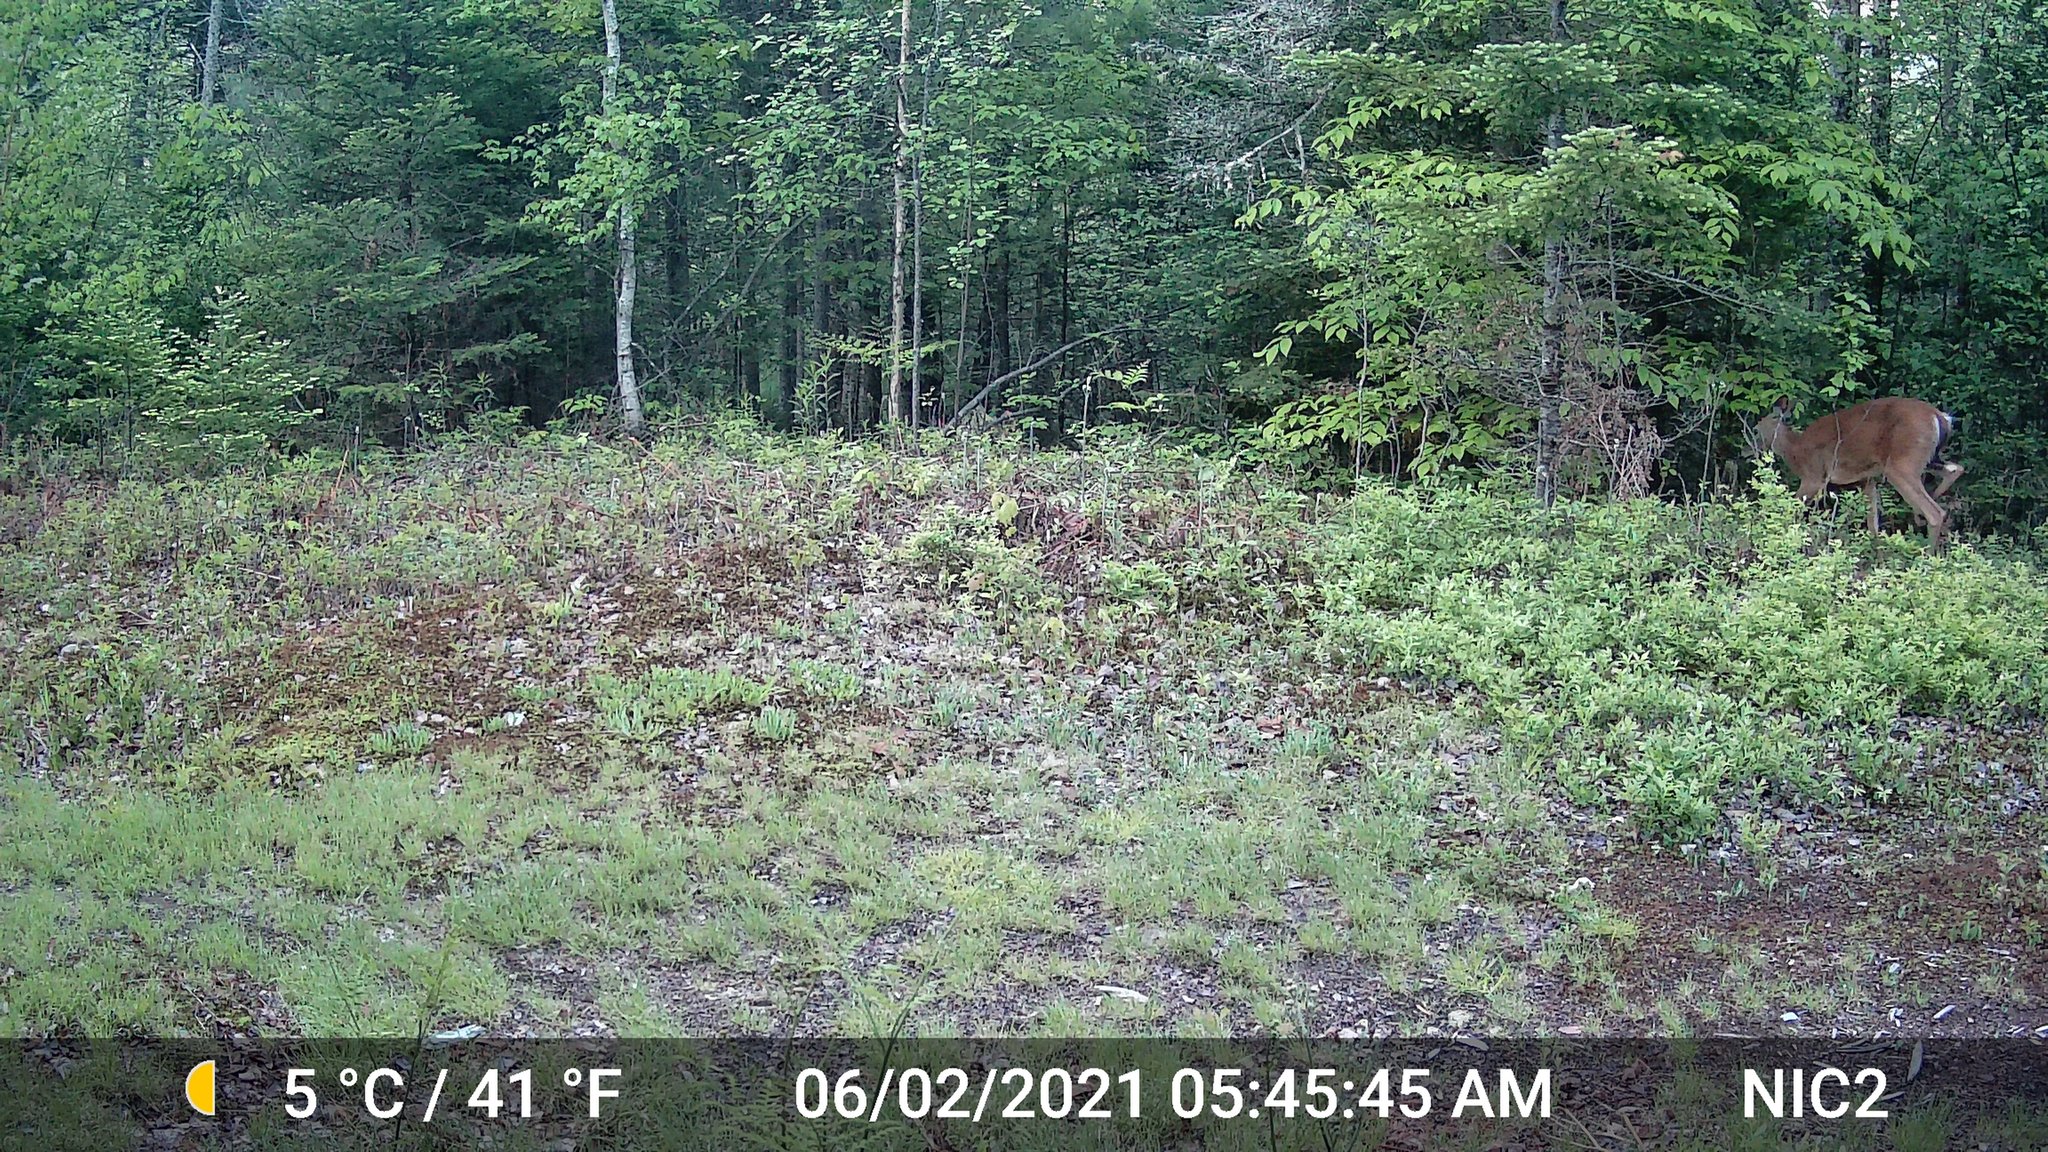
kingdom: Animalia
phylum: Chordata
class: Mammalia
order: Artiodactyla
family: Cervidae
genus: Odocoileus
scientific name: Odocoileus virginianus
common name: White-tailed deer
